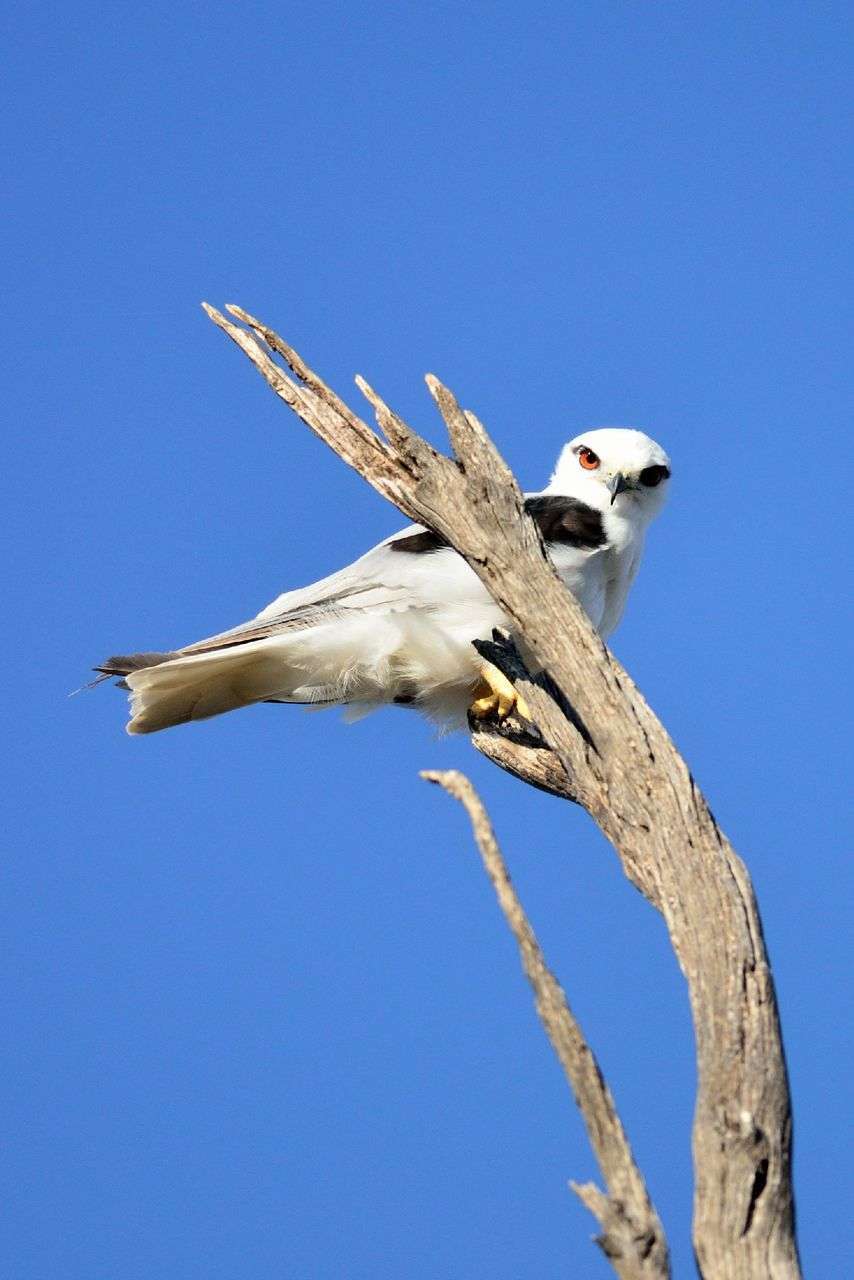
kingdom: Animalia
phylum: Chordata
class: Aves
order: Accipitriformes
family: Accipitridae
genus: Elanus
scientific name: Elanus axillaris
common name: Black-shouldered kite
